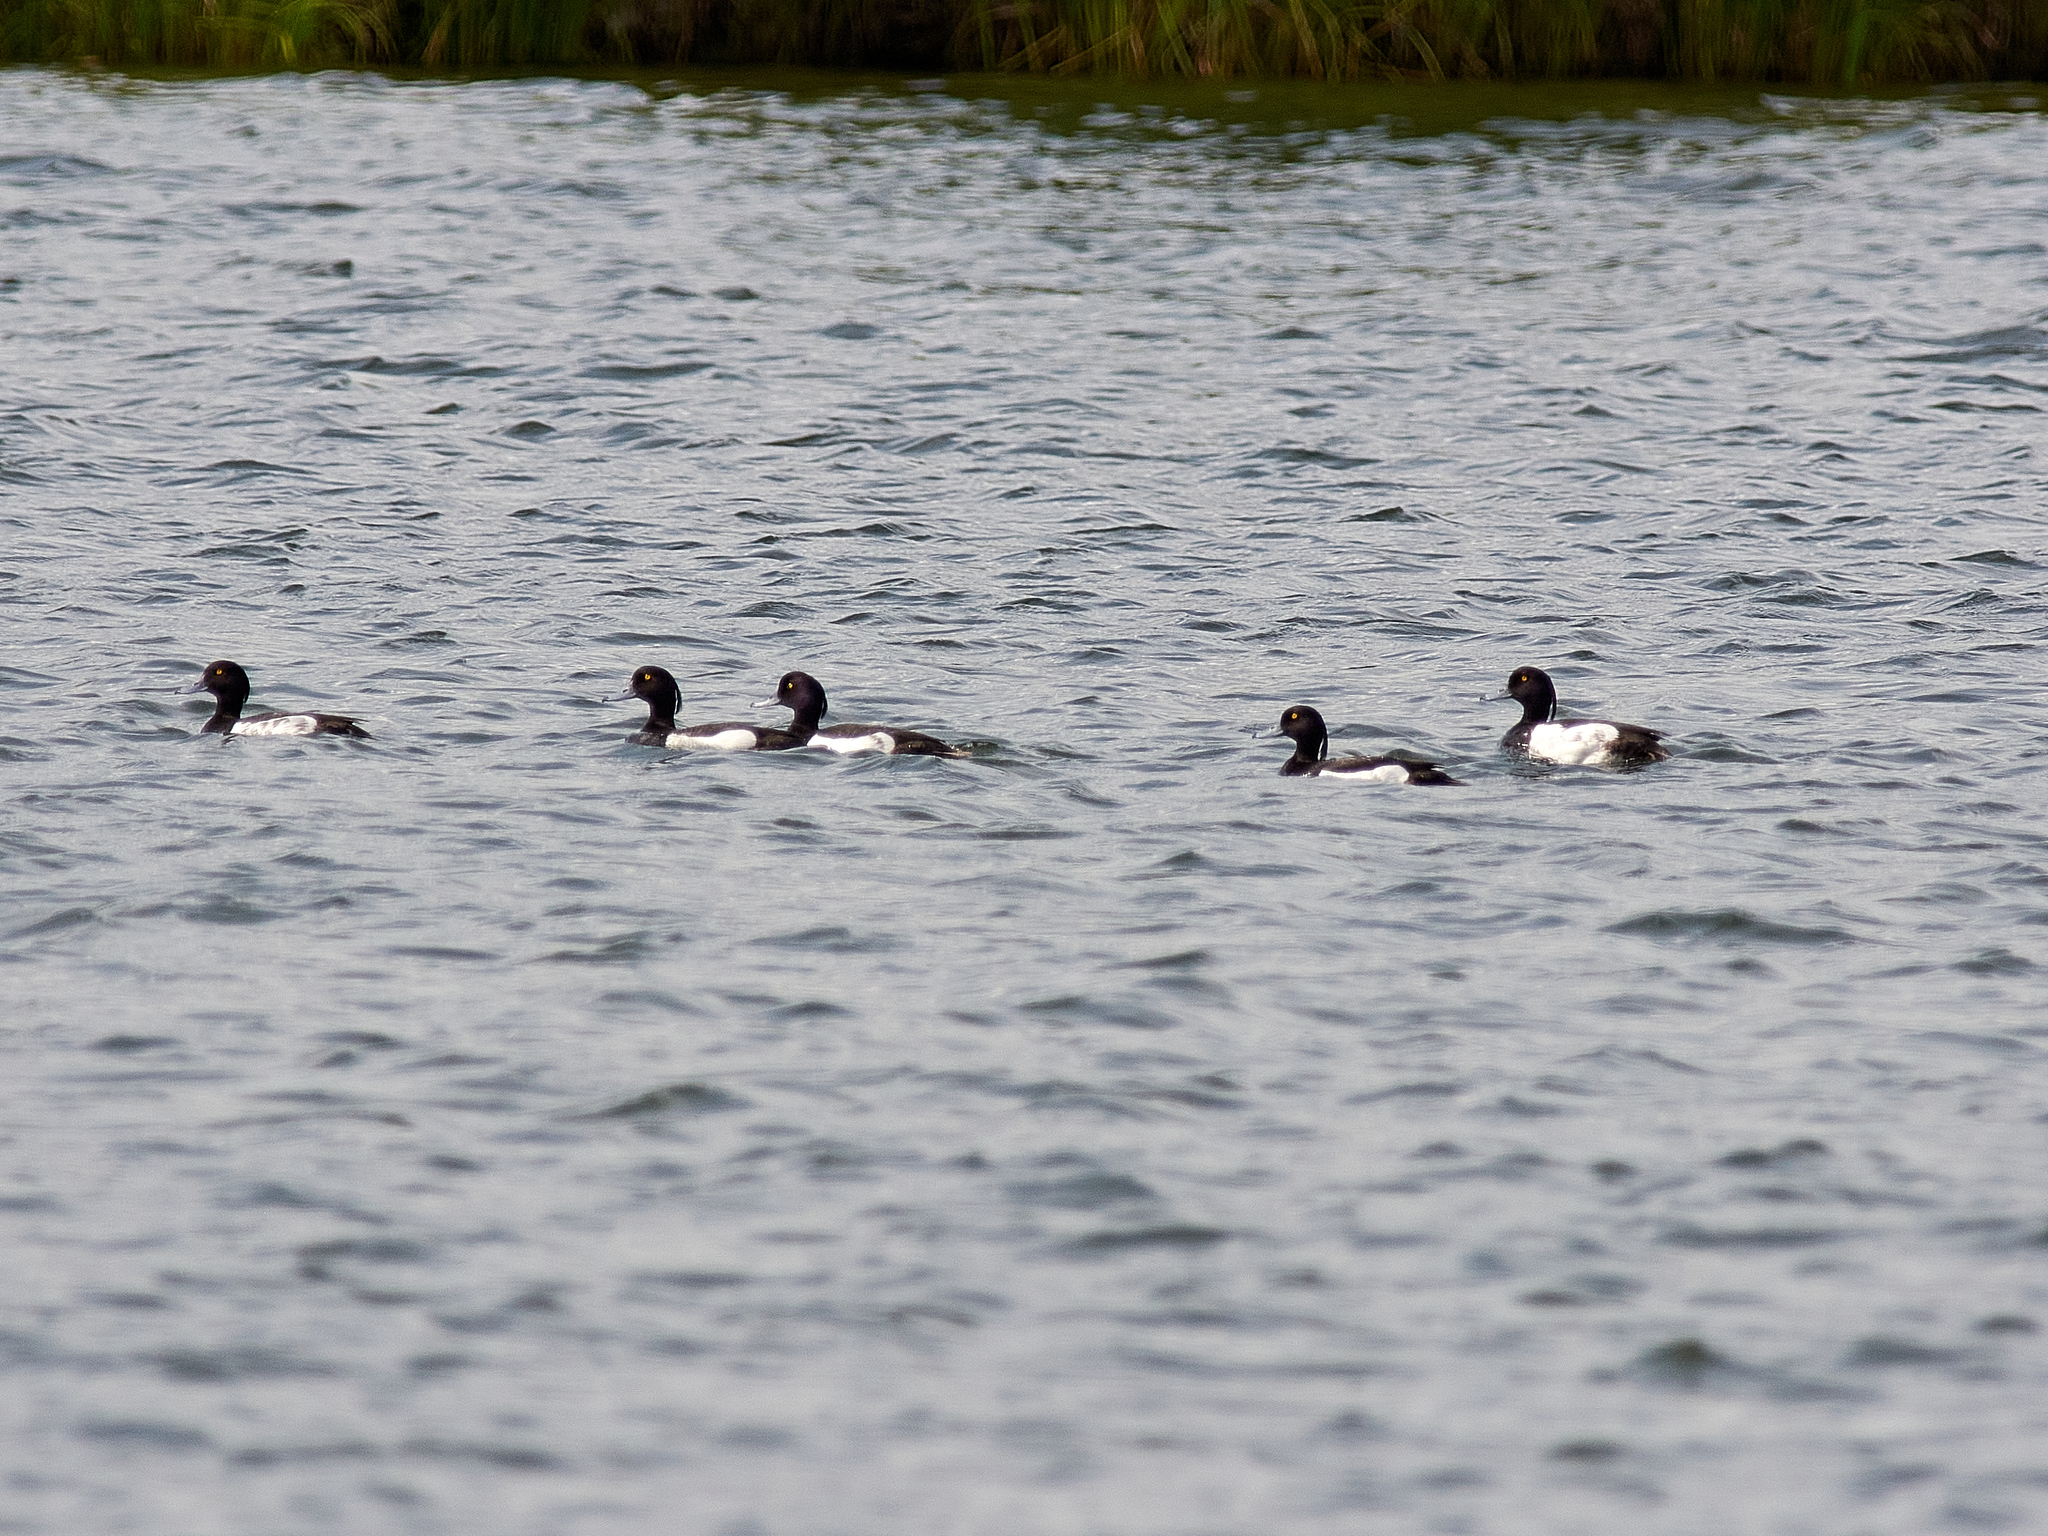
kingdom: Animalia
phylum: Chordata
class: Aves
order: Anseriformes
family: Anatidae
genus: Aythya
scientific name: Aythya fuligula
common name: Tufted duck
